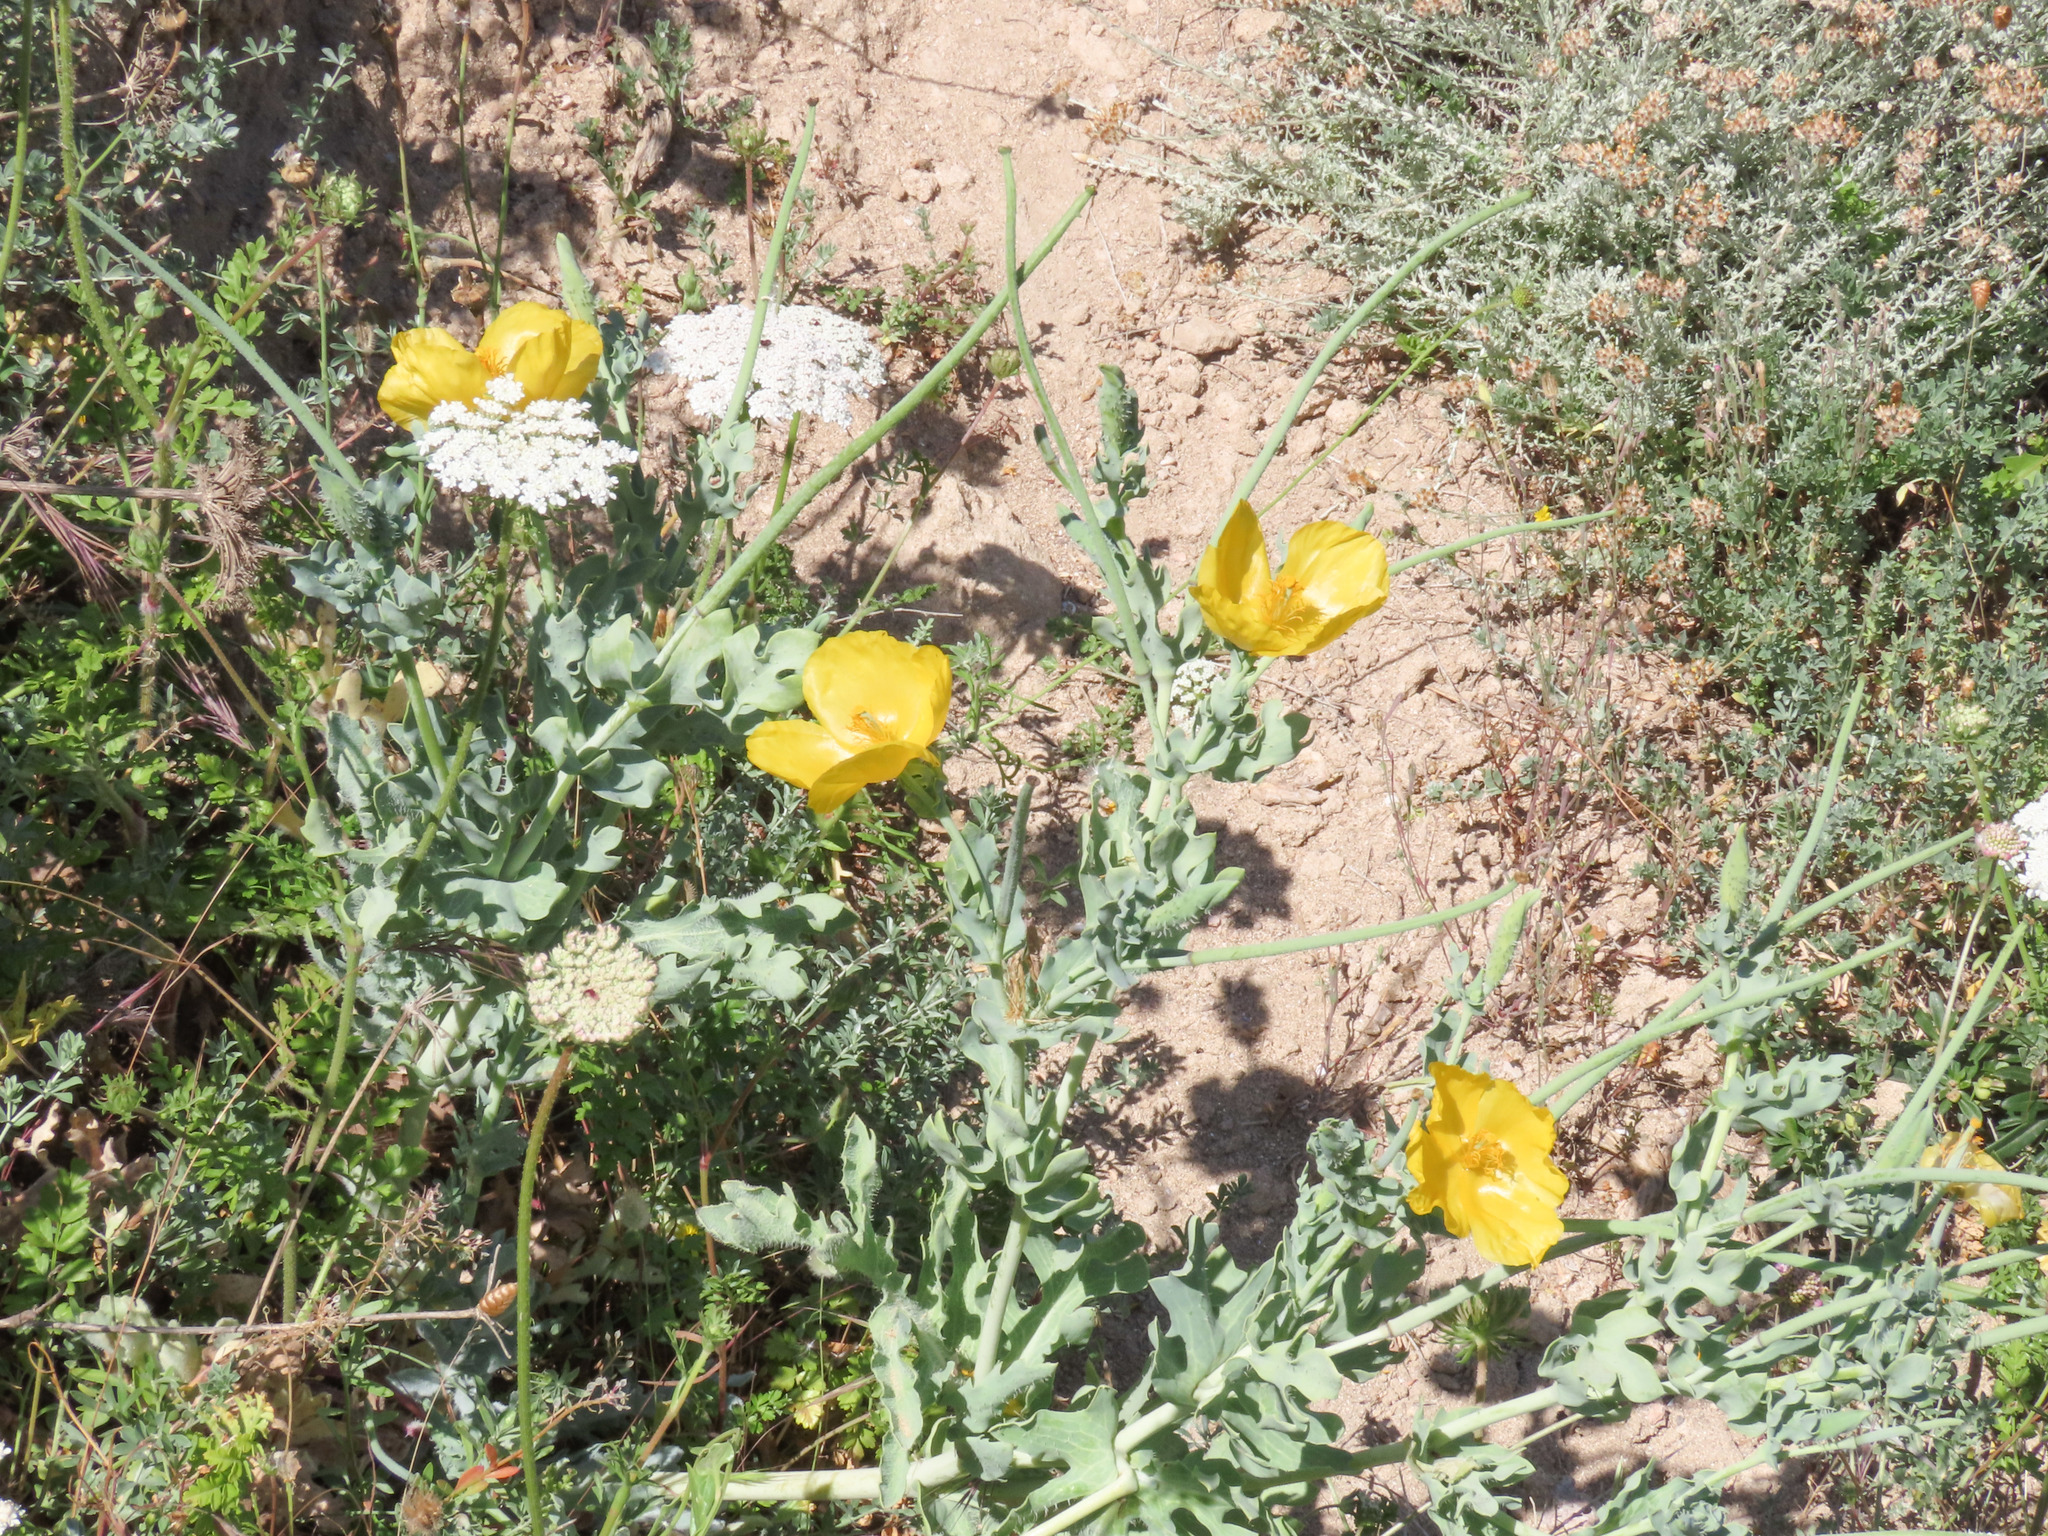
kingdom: Plantae
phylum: Tracheophyta
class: Magnoliopsida
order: Ranunculales
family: Papaveraceae
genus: Glaucium
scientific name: Glaucium flavum
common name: Yellow horned-poppy
